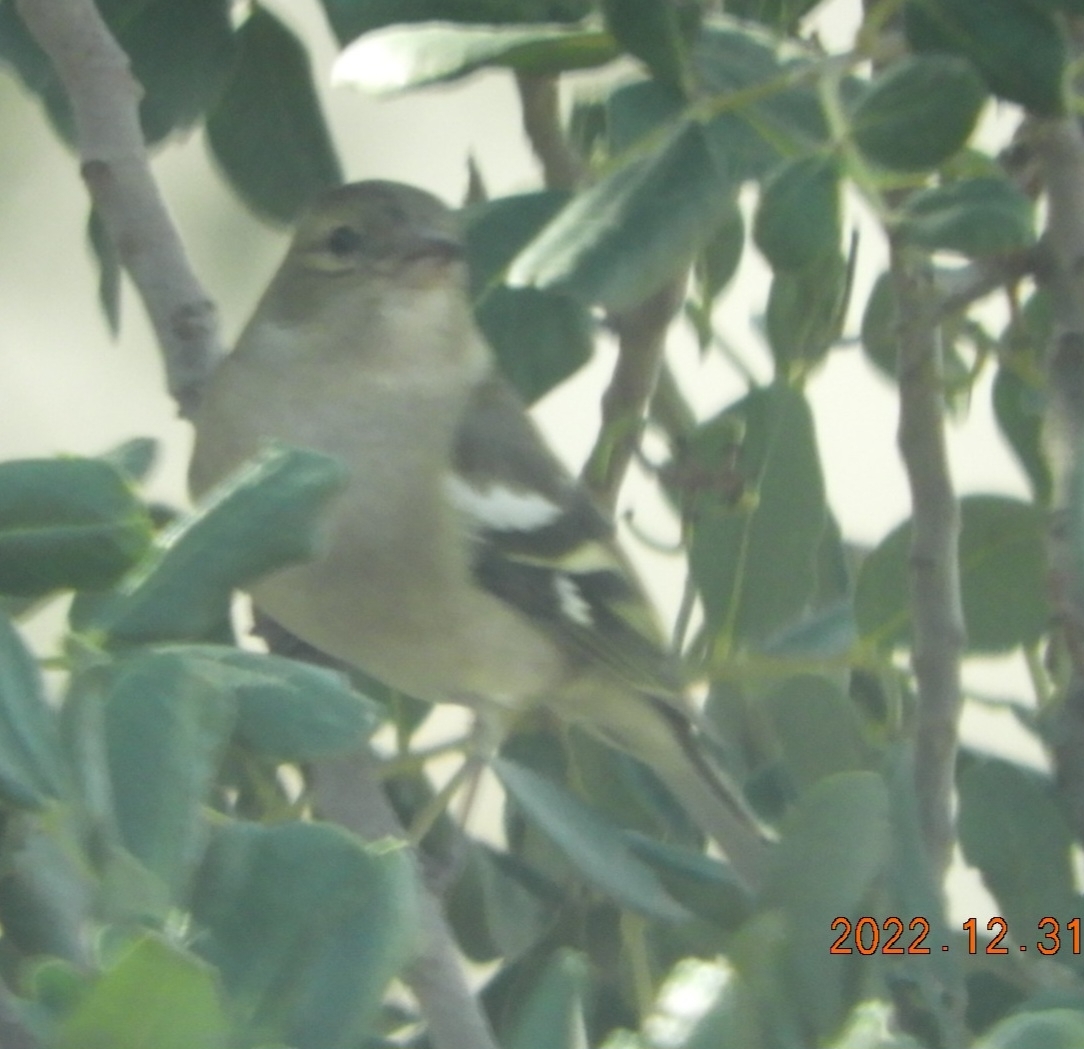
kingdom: Animalia
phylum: Chordata
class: Aves
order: Passeriformes
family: Fringillidae
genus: Fringilla
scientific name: Fringilla coelebs
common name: Common chaffinch
